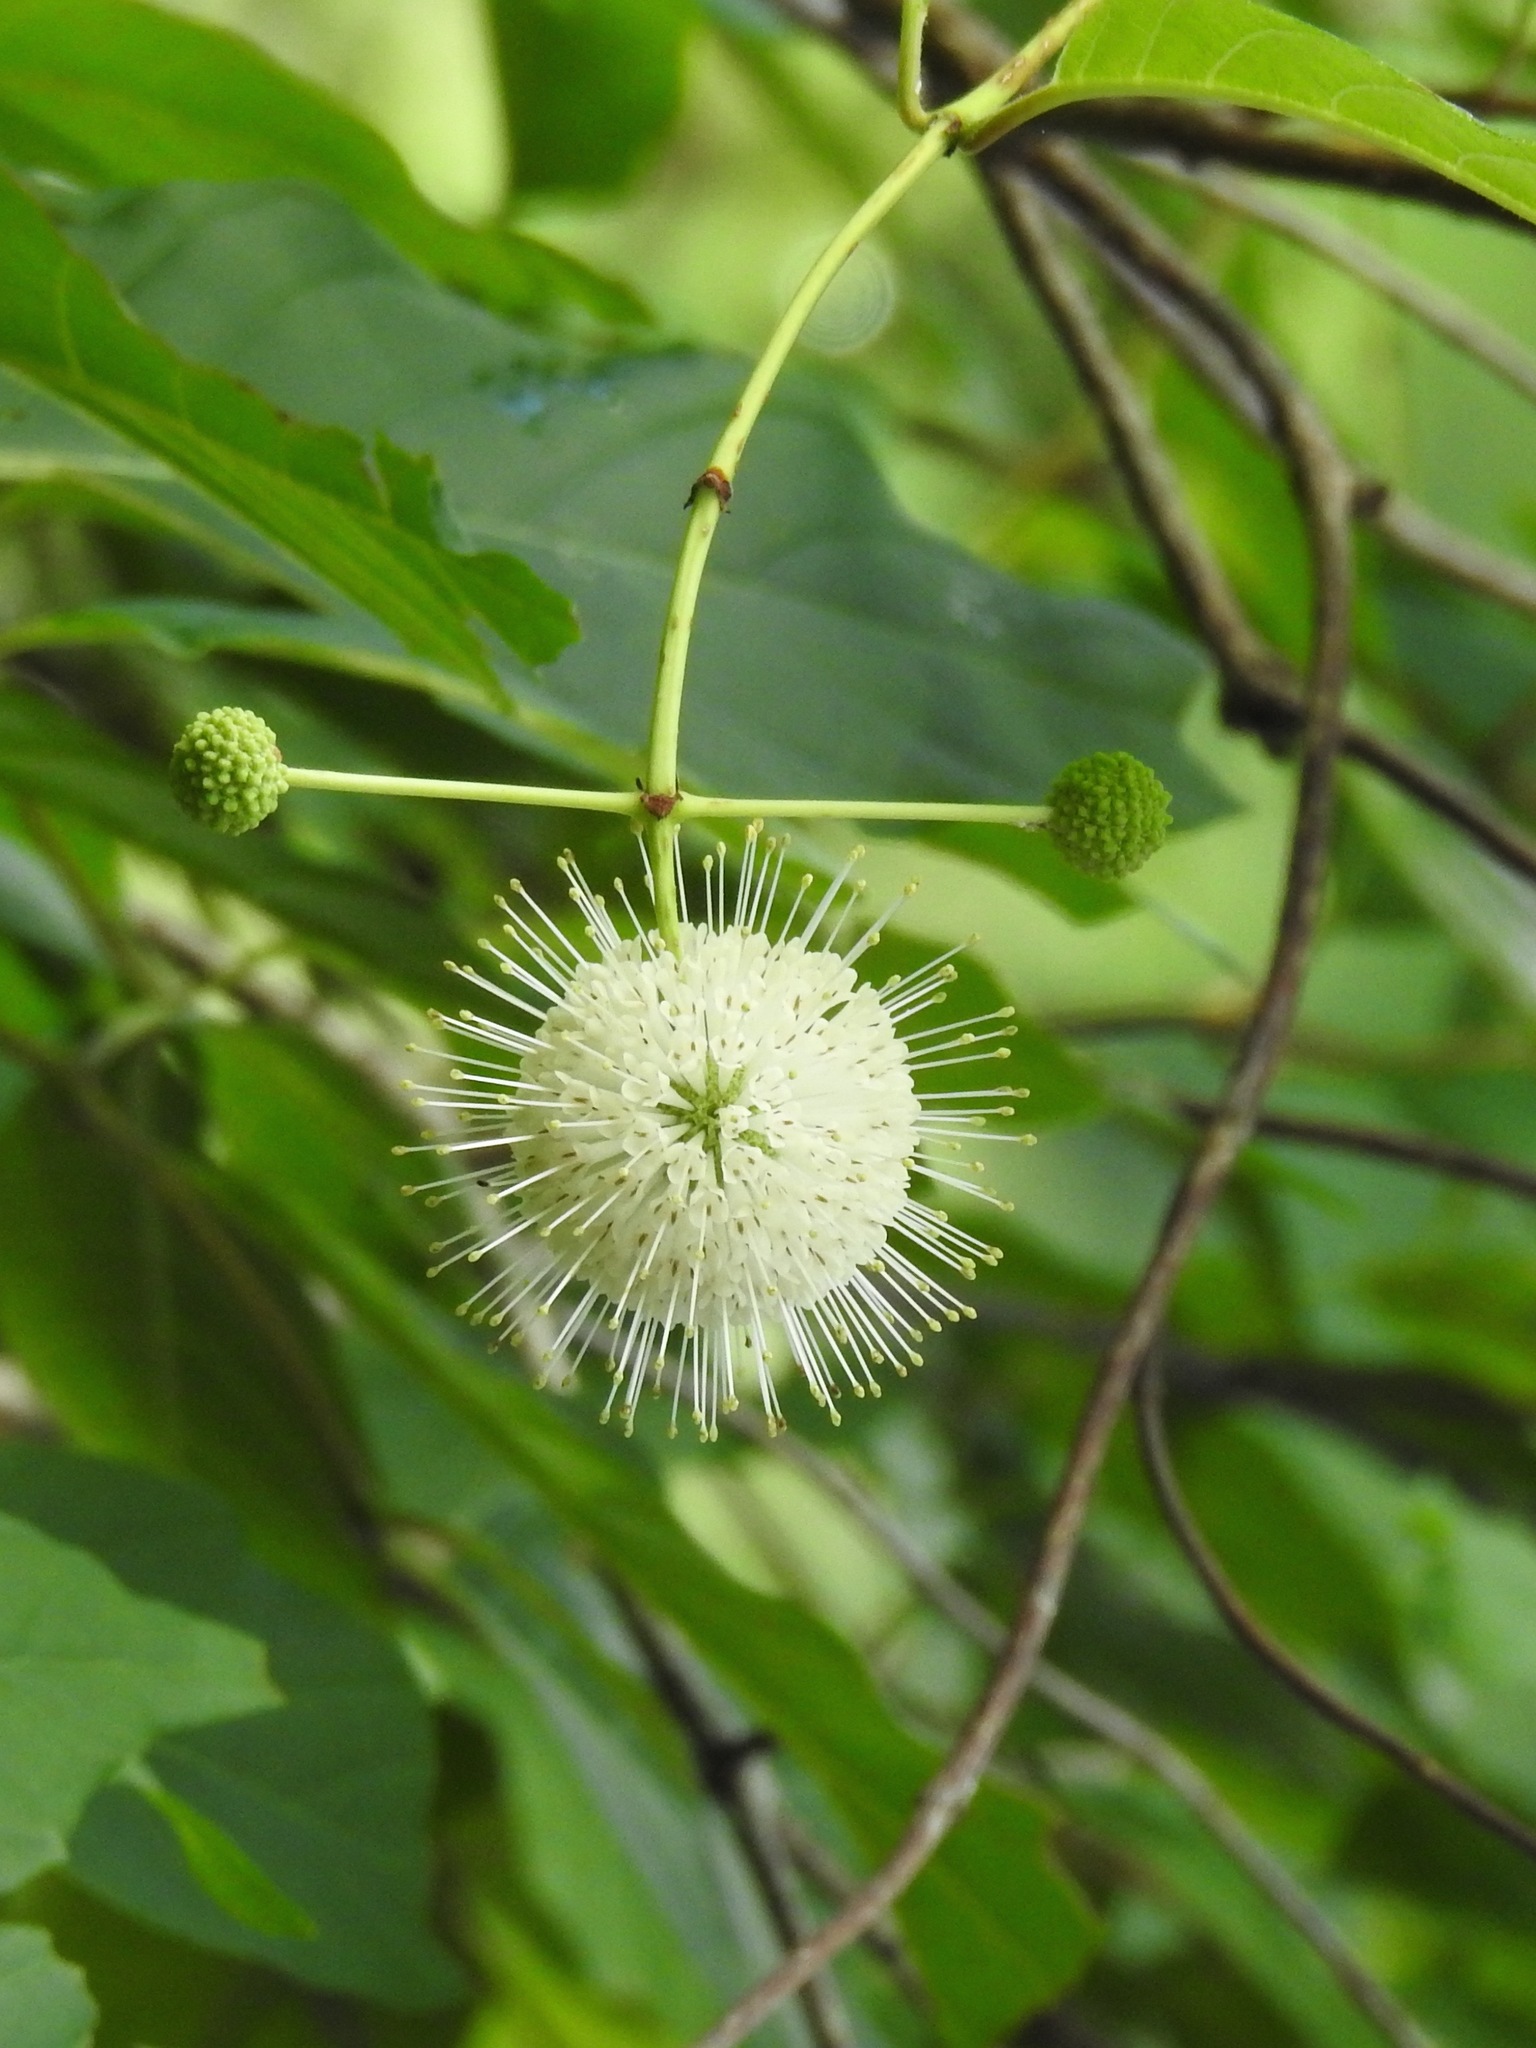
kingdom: Plantae
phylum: Tracheophyta
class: Magnoliopsida
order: Gentianales
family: Rubiaceae
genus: Cephalanthus
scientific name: Cephalanthus occidentalis
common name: Button-willow
